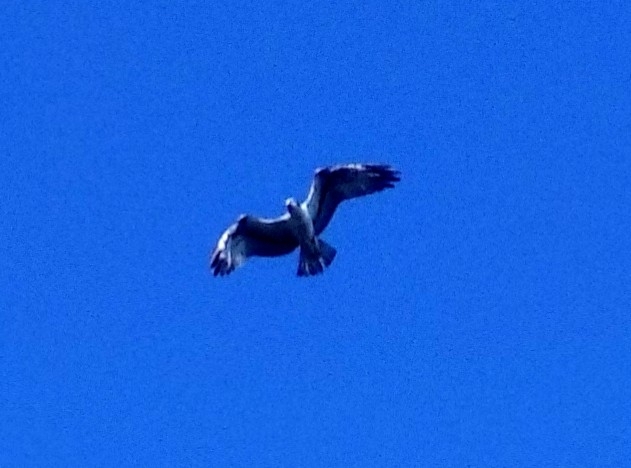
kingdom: Animalia
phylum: Chordata
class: Aves
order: Accipitriformes
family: Pandionidae
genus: Pandion
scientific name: Pandion haliaetus
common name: Osprey
